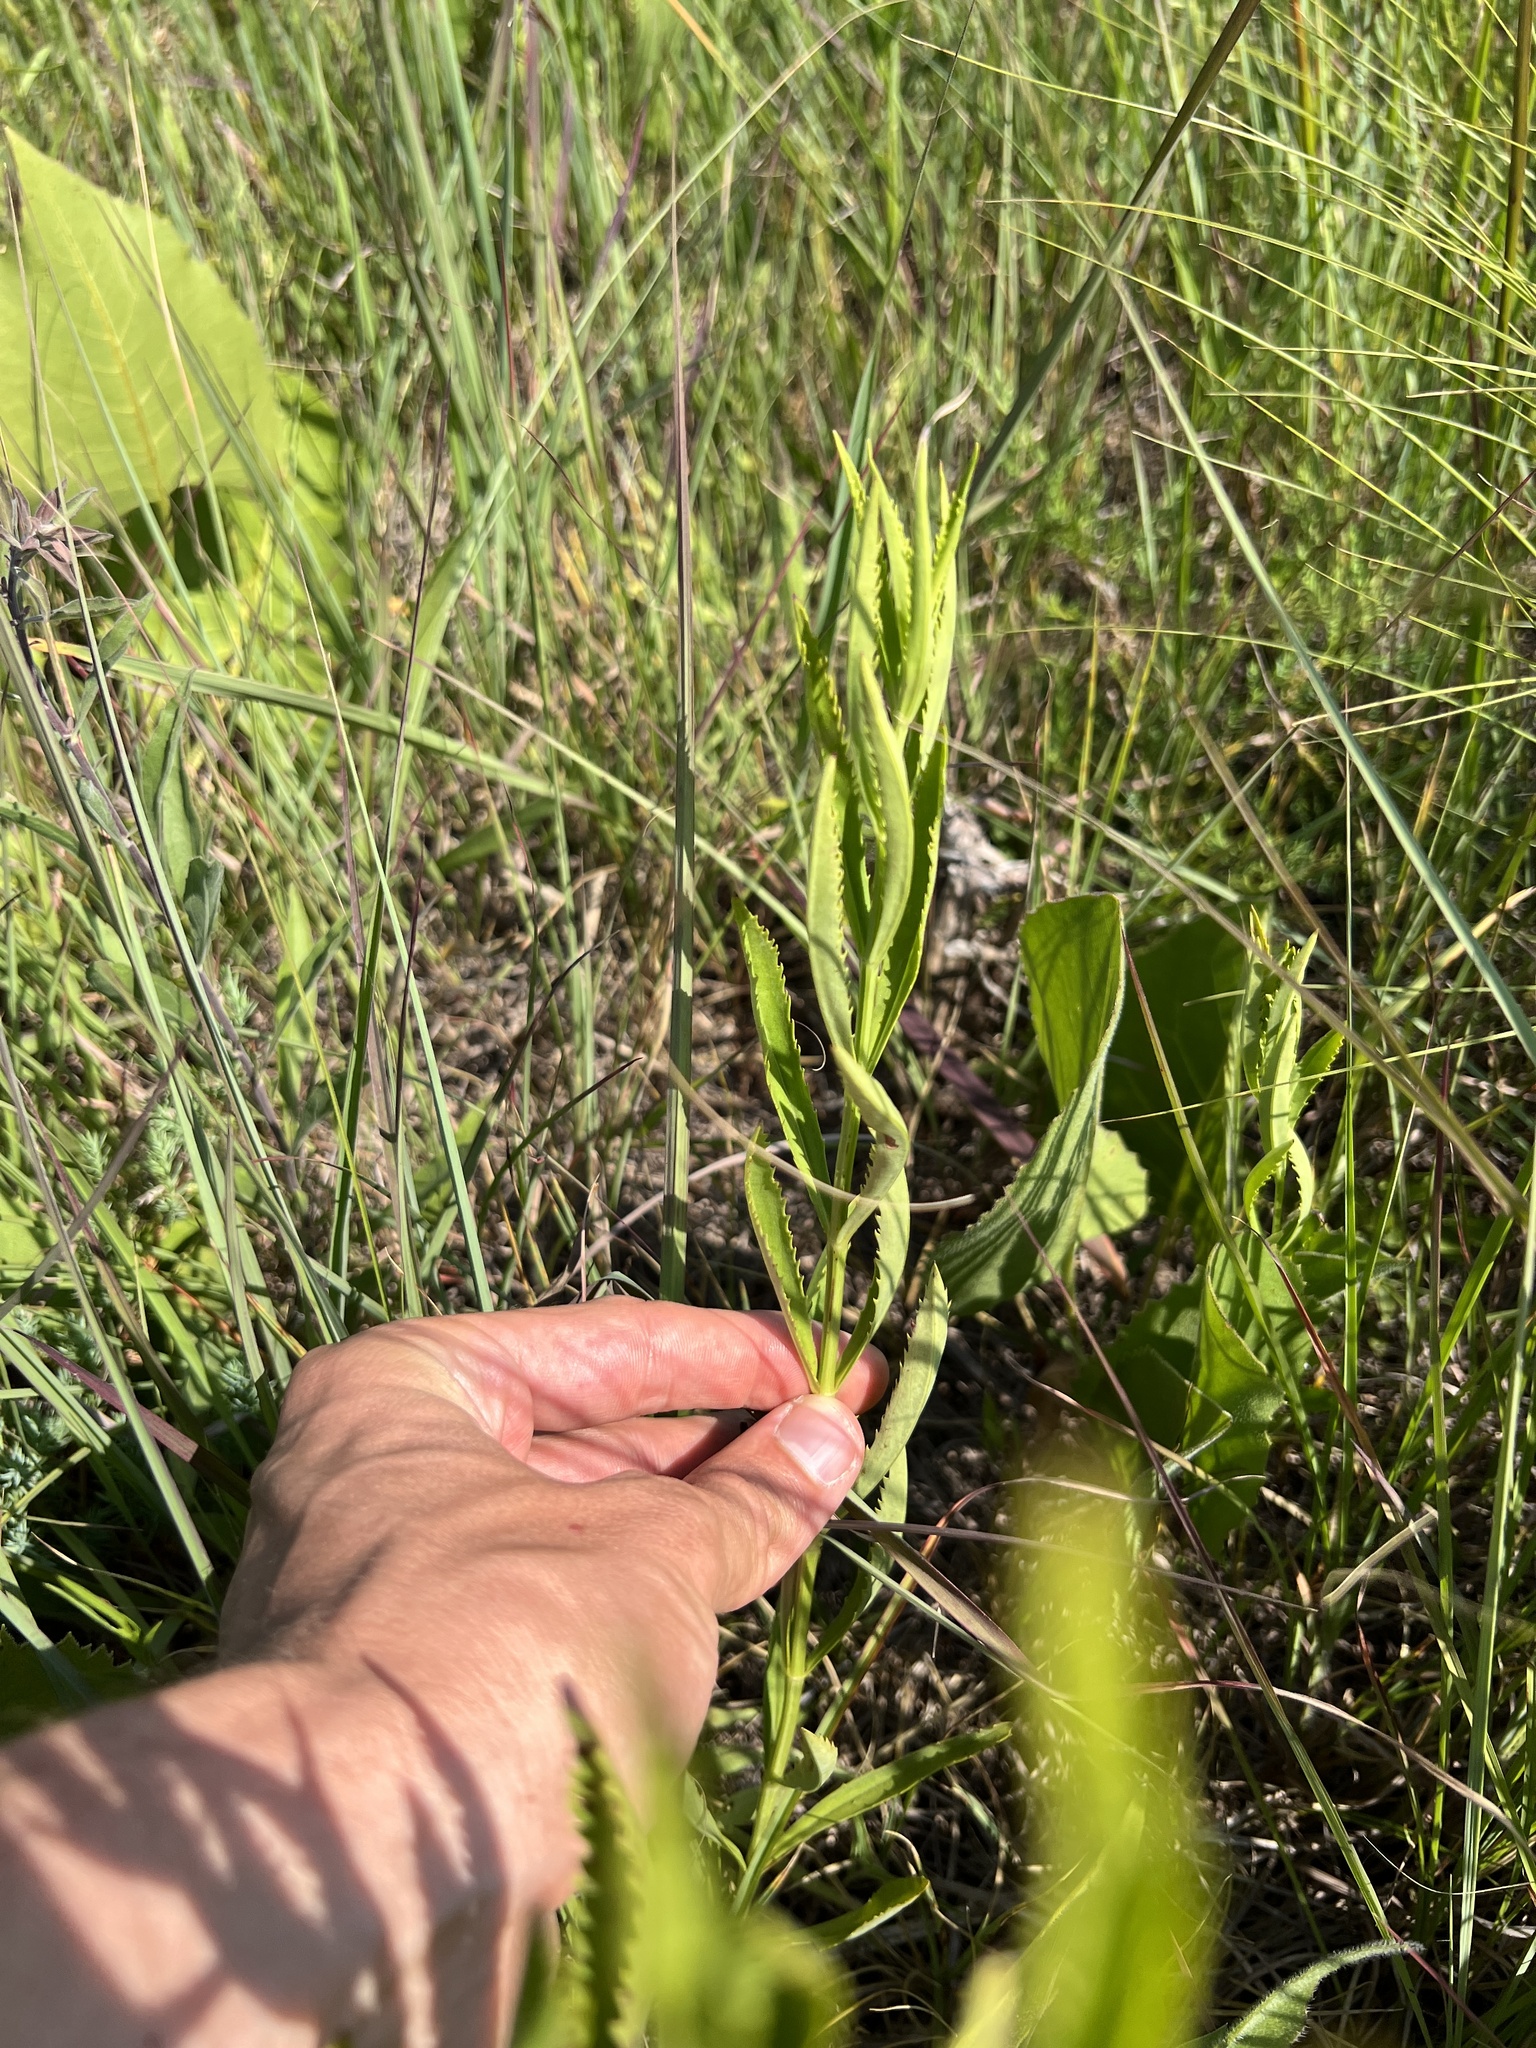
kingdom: Plantae
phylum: Tracheophyta
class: Magnoliopsida
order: Lamiales
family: Lamiaceae
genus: Physostegia
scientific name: Physostegia virginiana
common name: Obedient-plant
